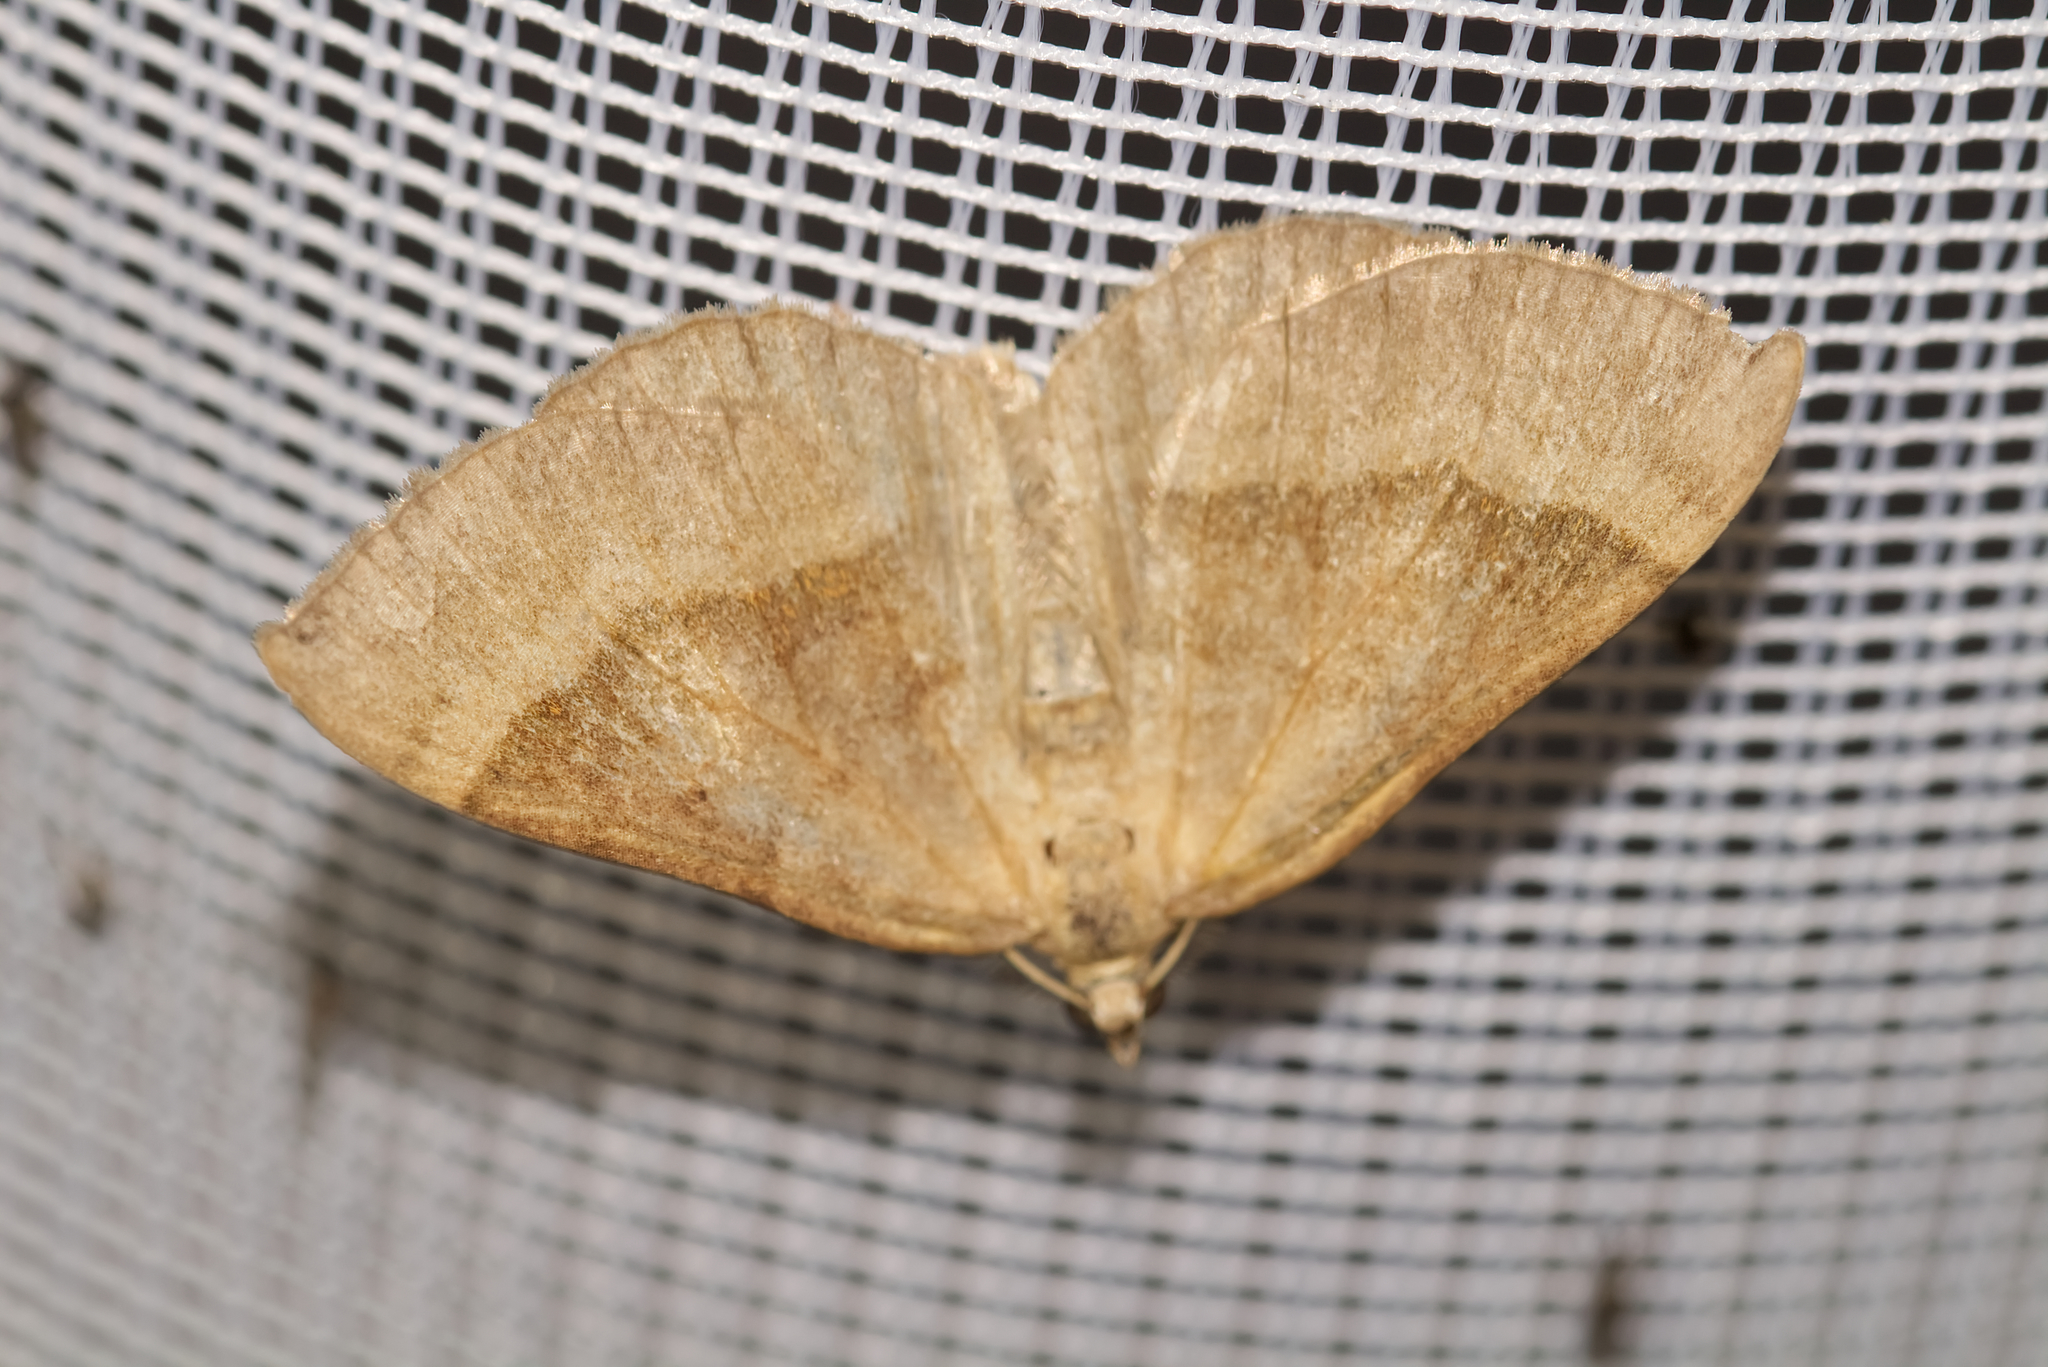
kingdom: Animalia
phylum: Arthropoda
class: Insecta
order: Lepidoptera
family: Geometridae
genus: Scotopteryx
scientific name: Scotopteryx chenopodiata
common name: Shaded broad-bar
